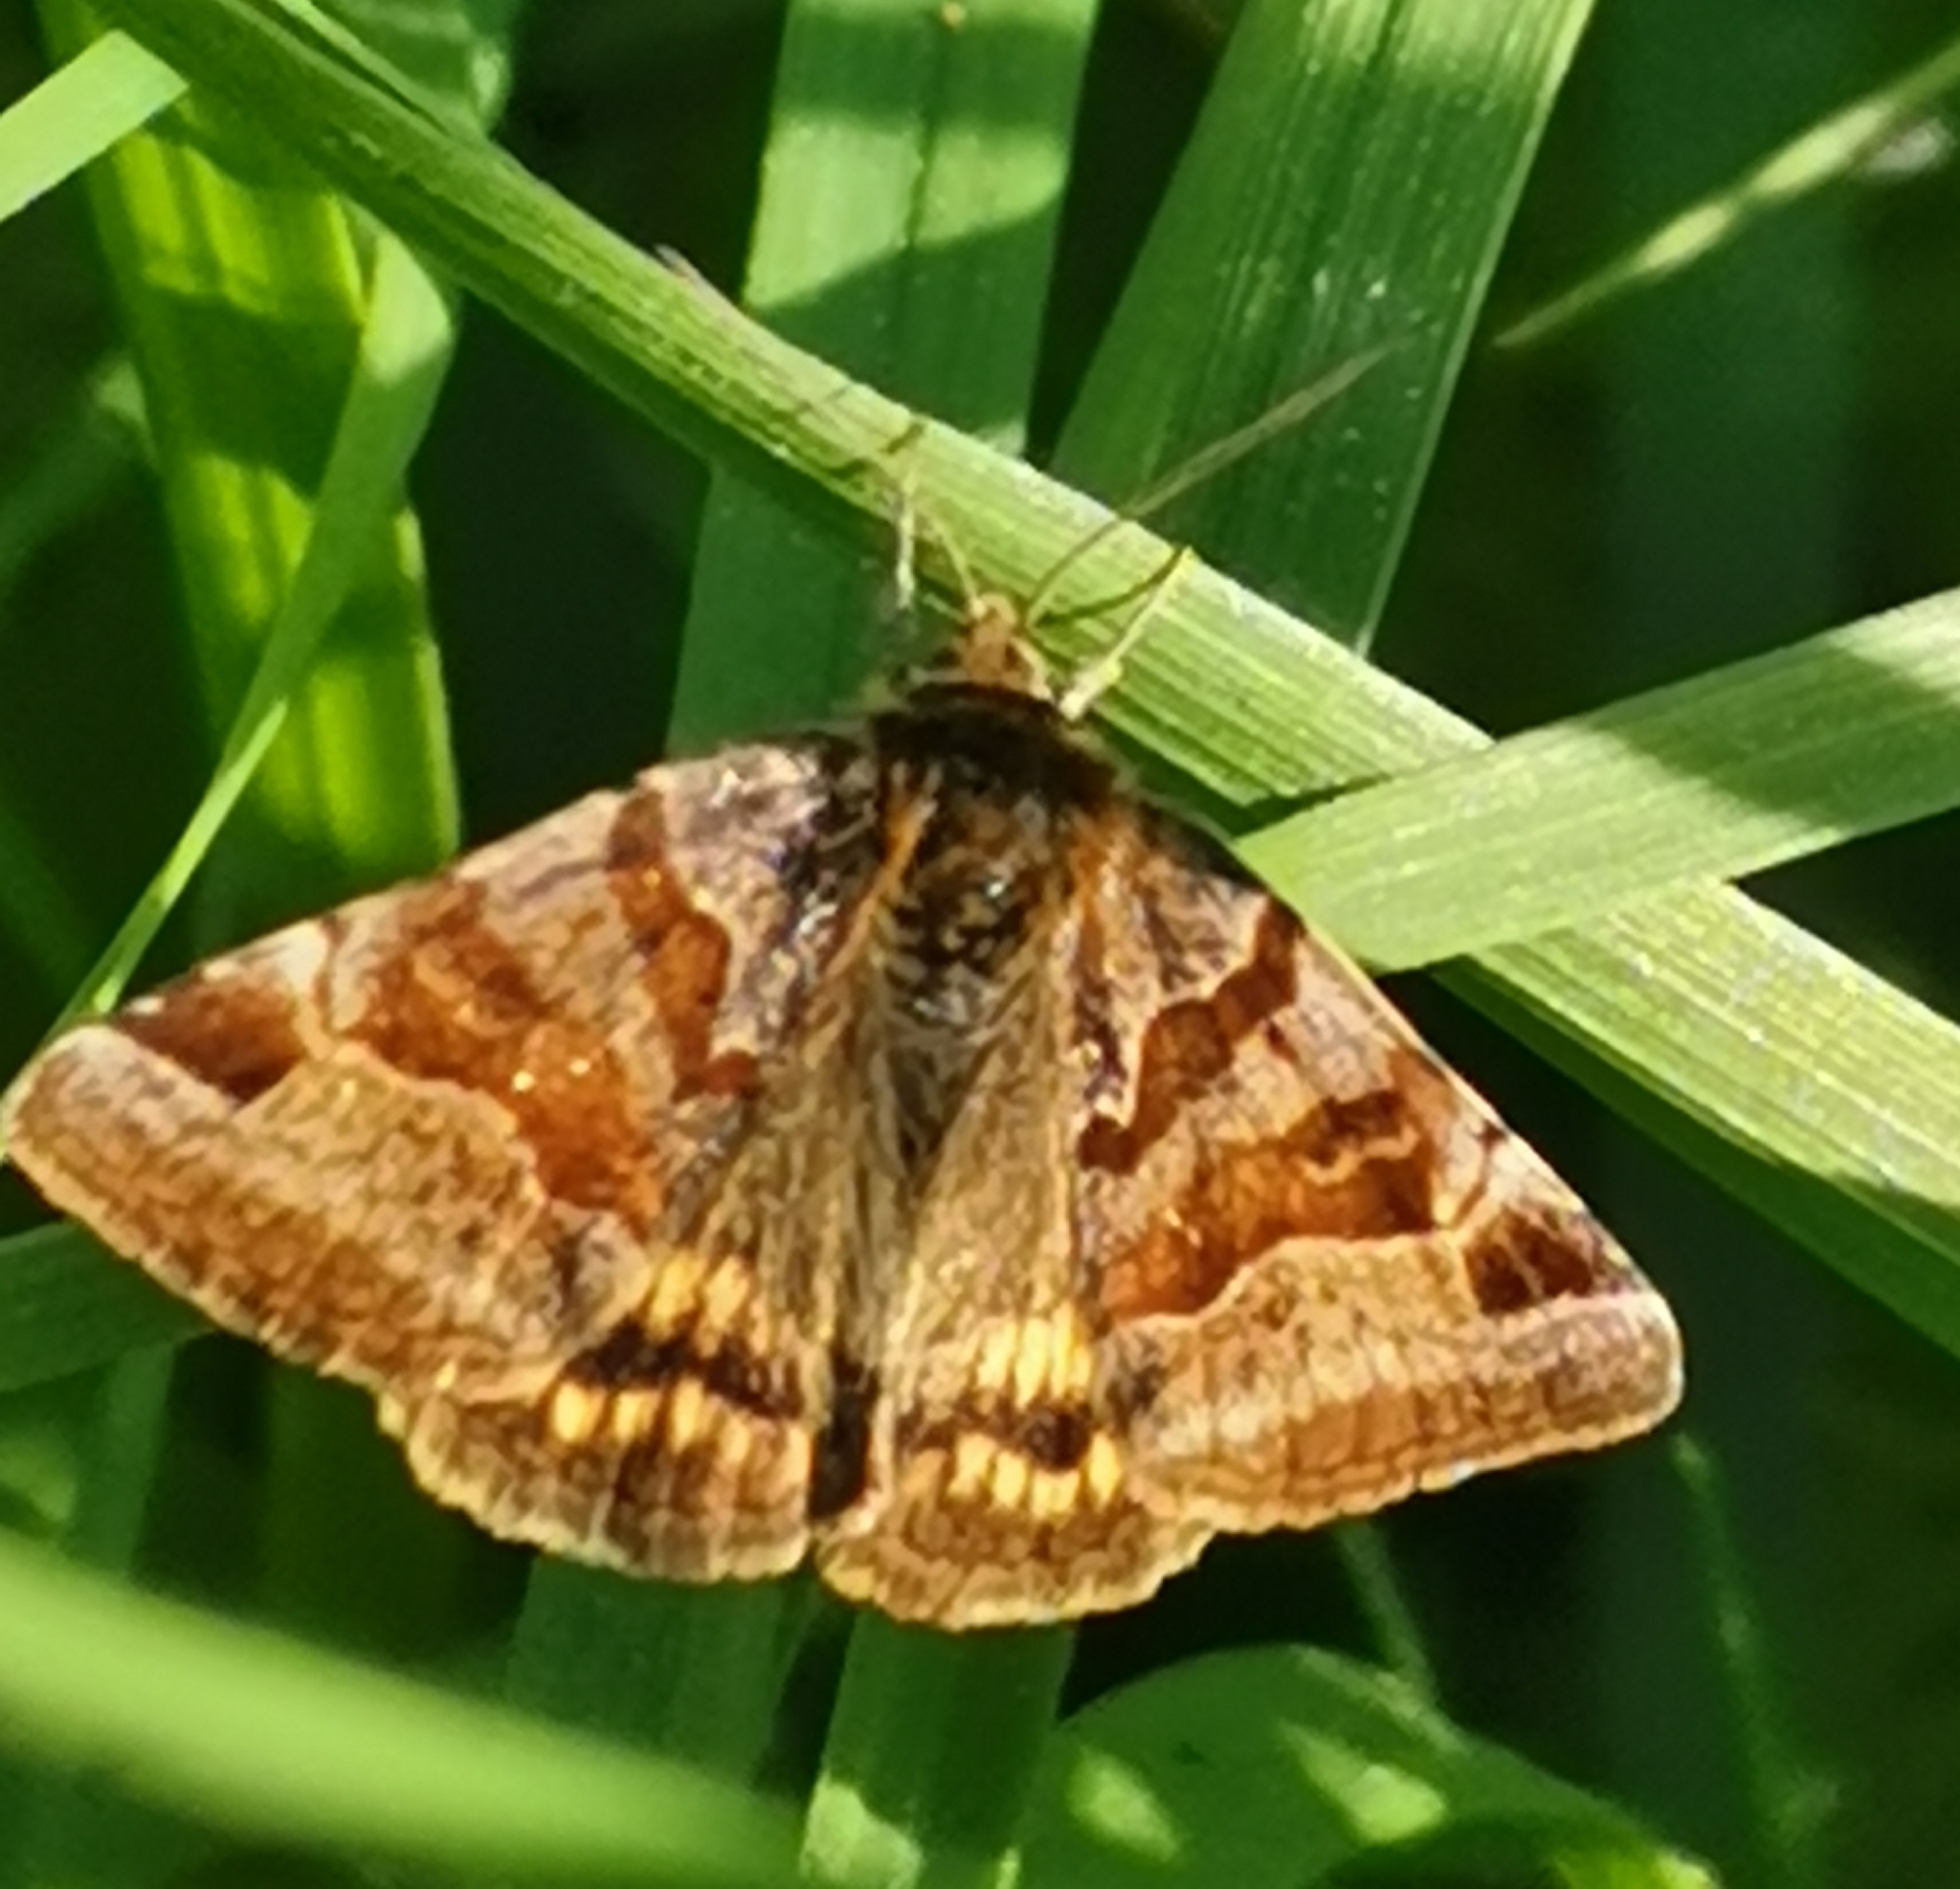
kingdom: Animalia
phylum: Arthropoda
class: Insecta
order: Lepidoptera
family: Erebidae
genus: Euclidia
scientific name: Euclidia glyphica
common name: Burnet companion
